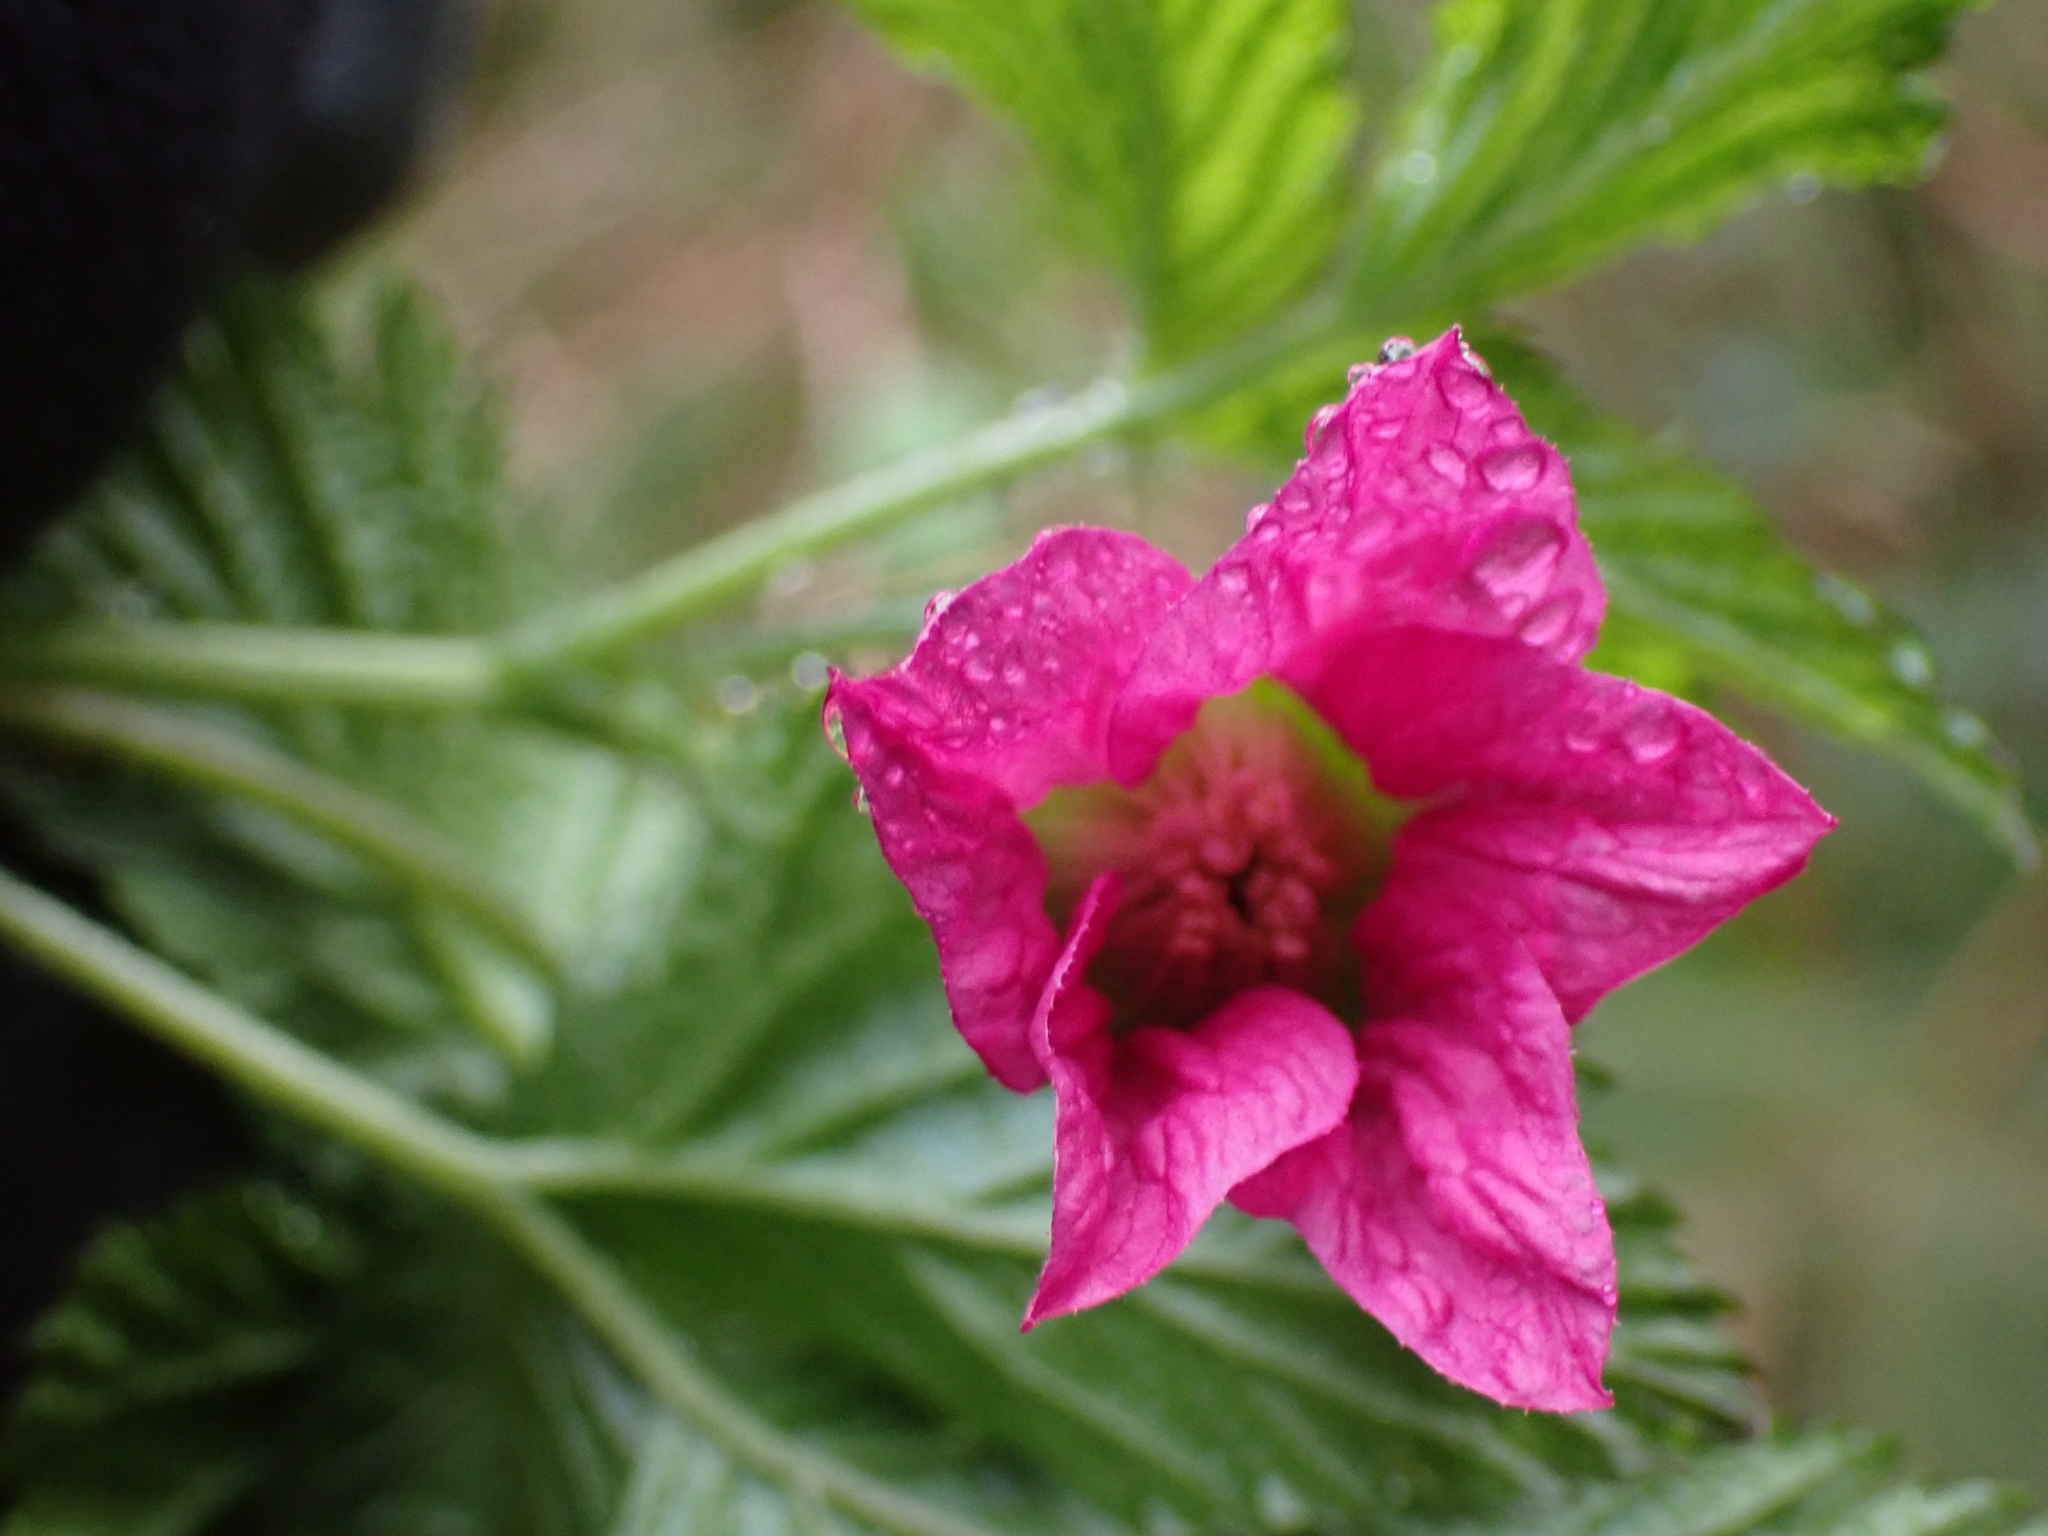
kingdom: Plantae
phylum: Tracheophyta
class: Magnoliopsida
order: Rosales
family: Rosaceae
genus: Rubus
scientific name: Rubus spectabilis
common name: Salmonberry
